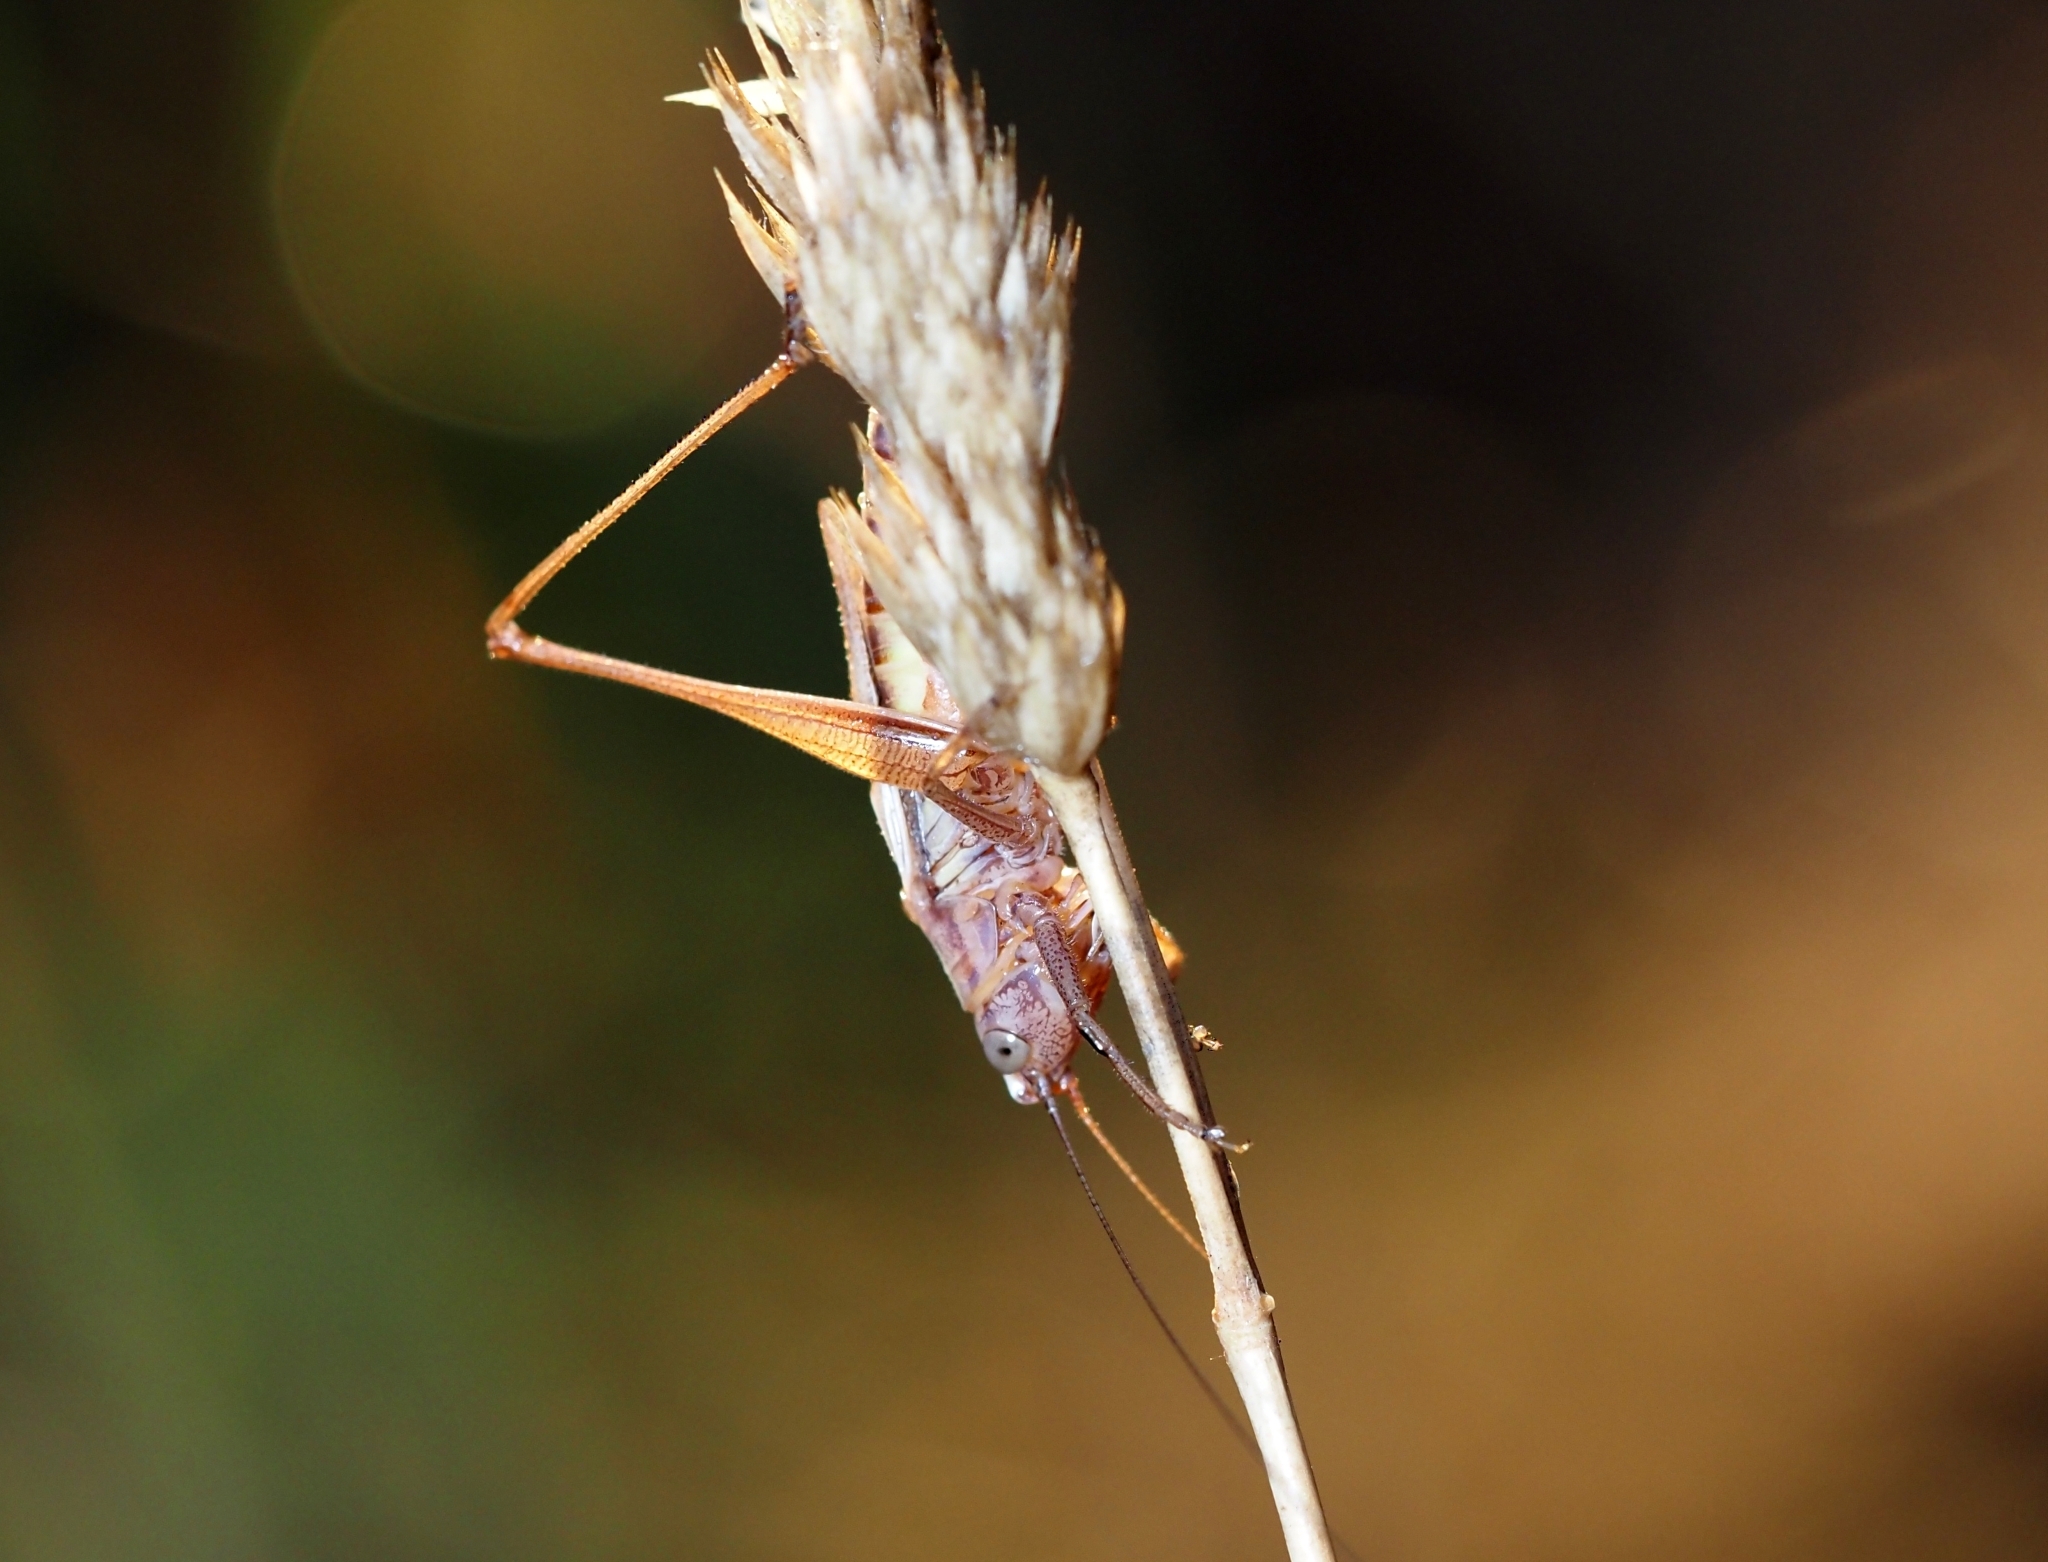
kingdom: Animalia
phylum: Arthropoda
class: Insecta
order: Orthoptera
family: Tettigoniidae
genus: Conocephalus
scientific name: Conocephalus albescens
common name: Whitish meadow katydid
